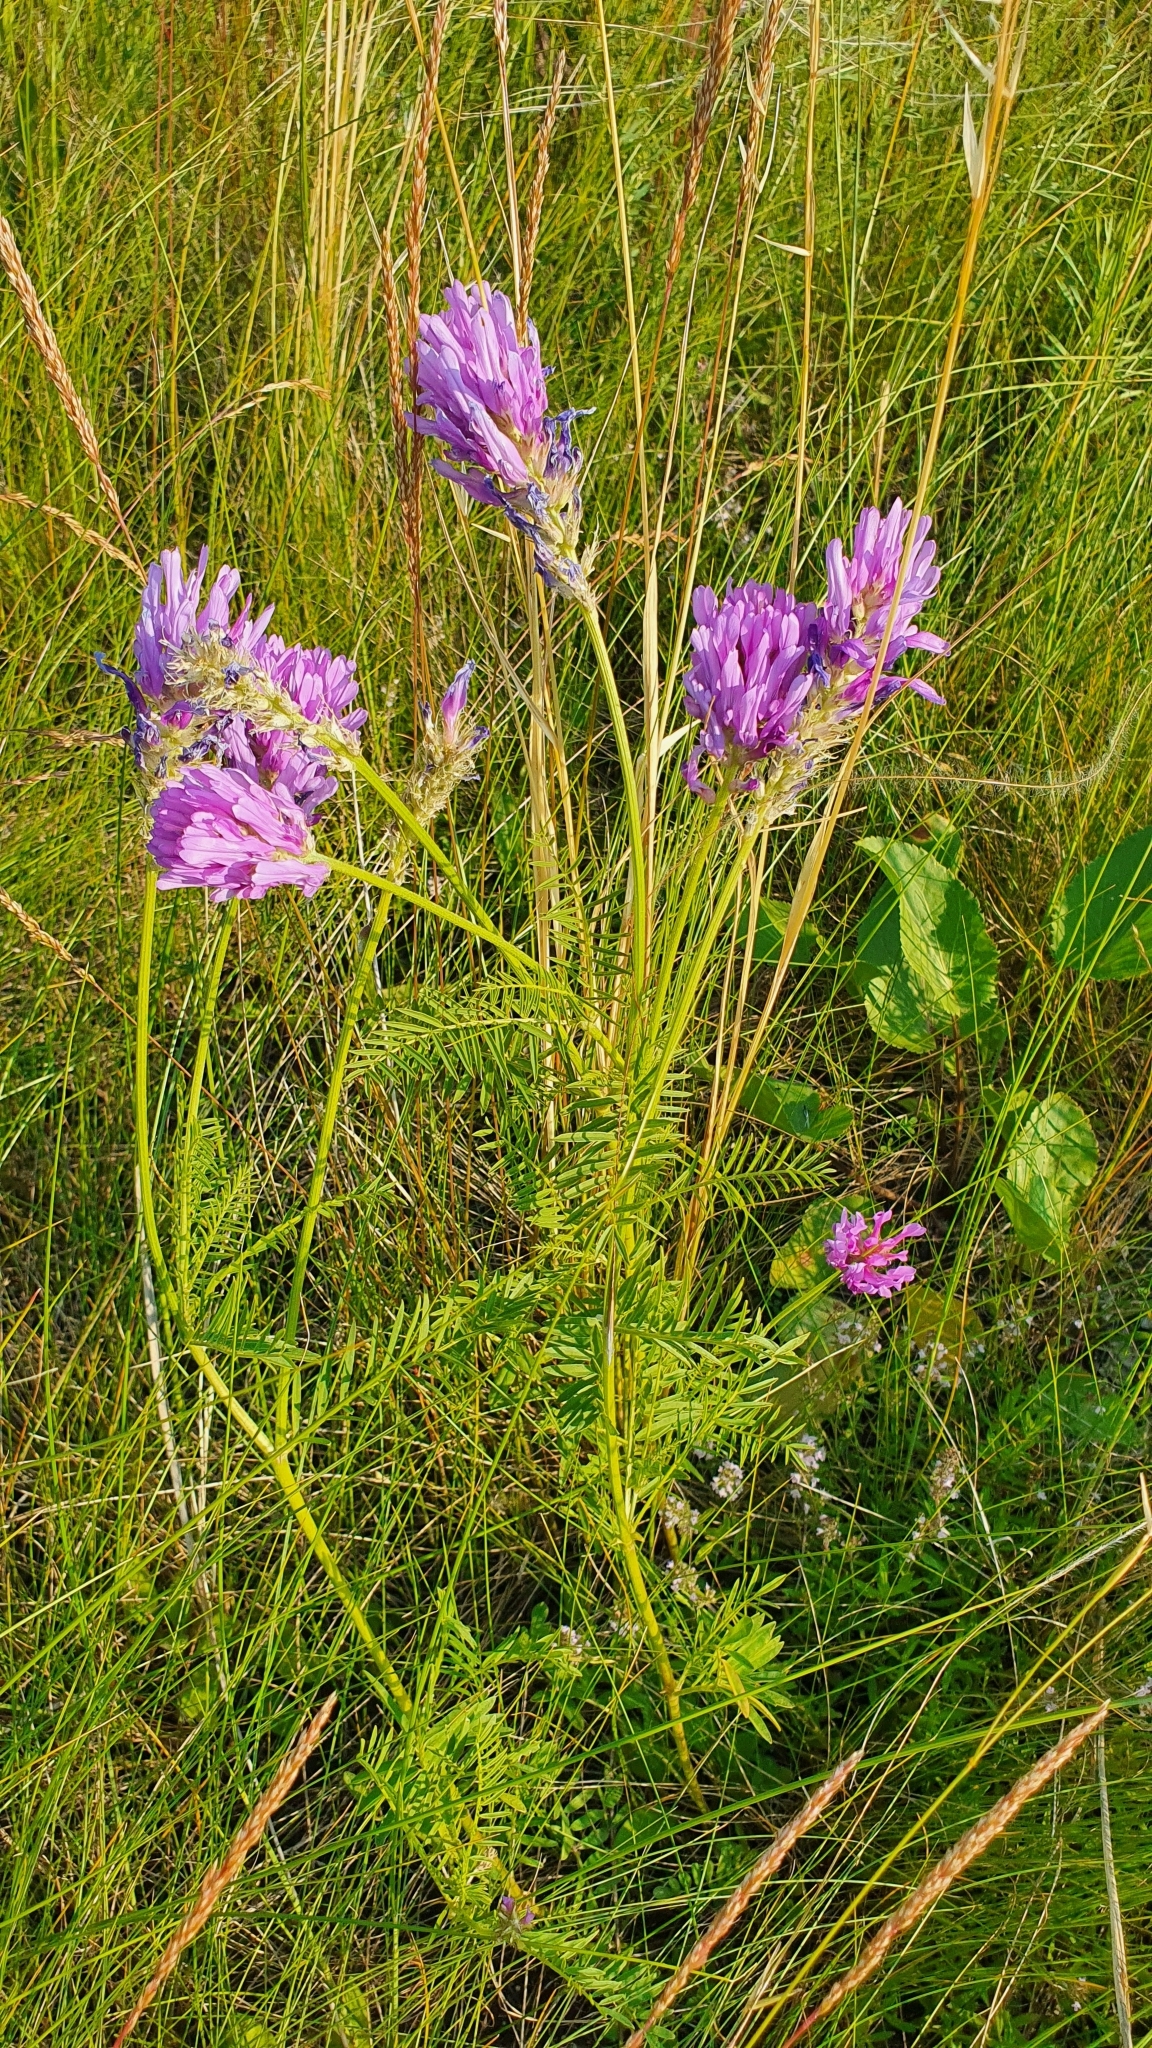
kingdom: Plantae
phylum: Tracheophyta
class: Magnoliopsida
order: Fabales
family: Fabaceae
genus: Astragalus
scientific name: Astragalus onobrychis
